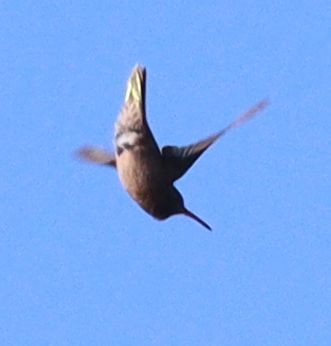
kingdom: Animalia
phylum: Chordata
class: Aves
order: Apodiformes
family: Trochilidae
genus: Hylocharis
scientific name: Hylocharis chrysura
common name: Gilded sapphire
